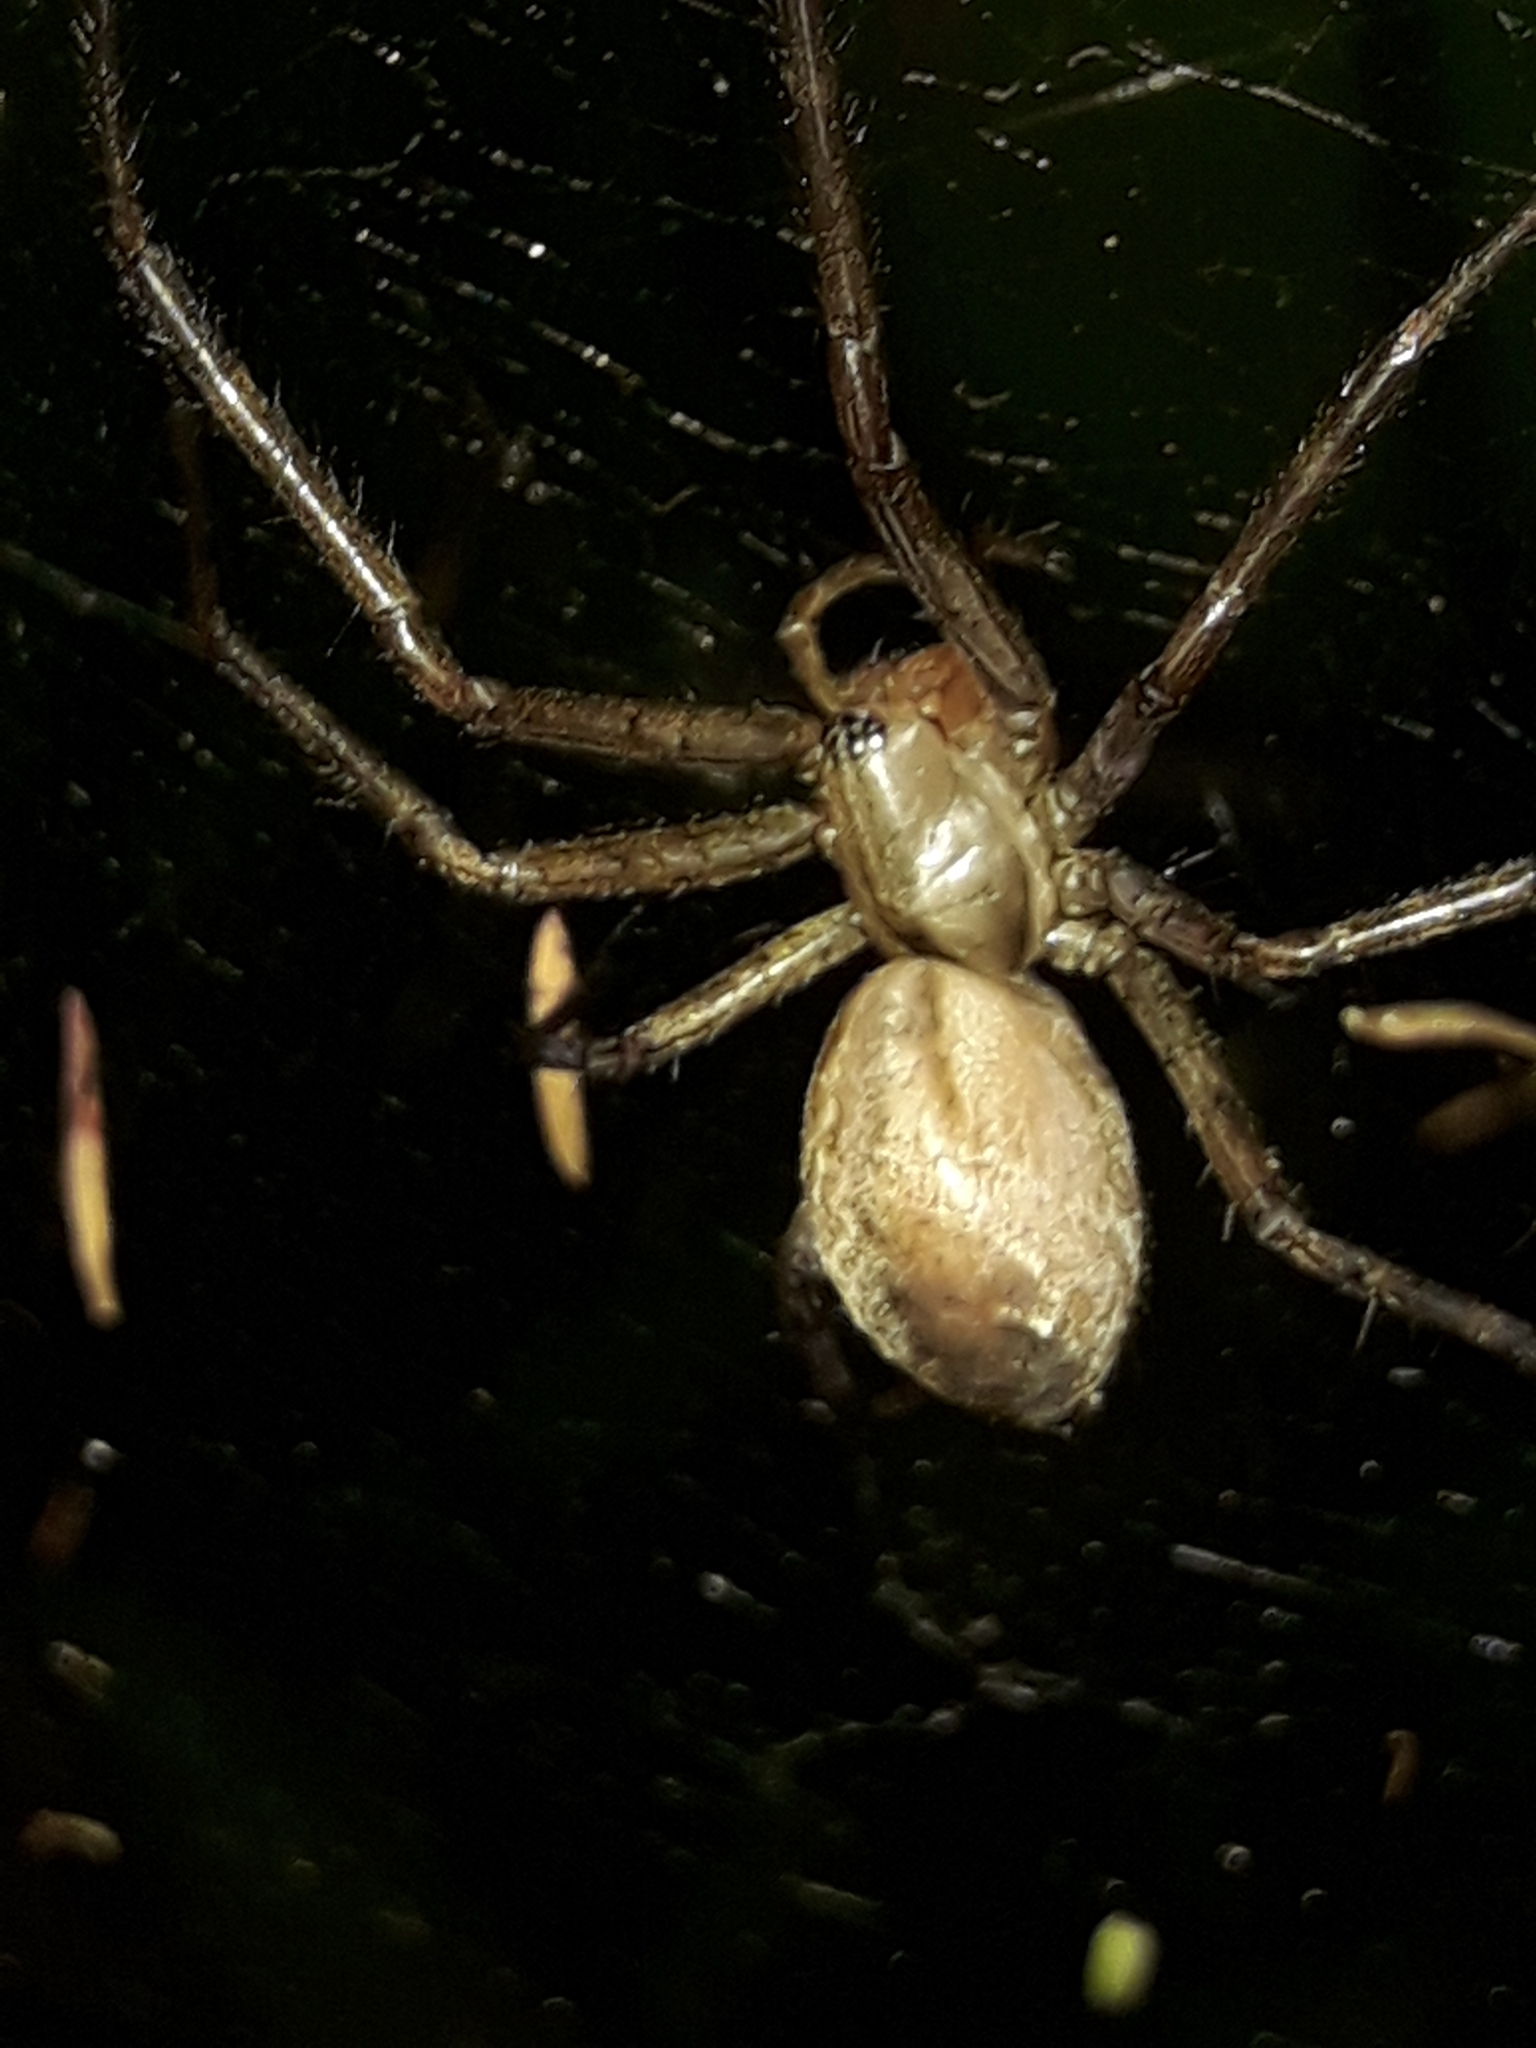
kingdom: Animalia
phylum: Arthropoda
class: Arachnida
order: Araneae
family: Desidae
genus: Cambridgea
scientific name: Cambridgea foliata
